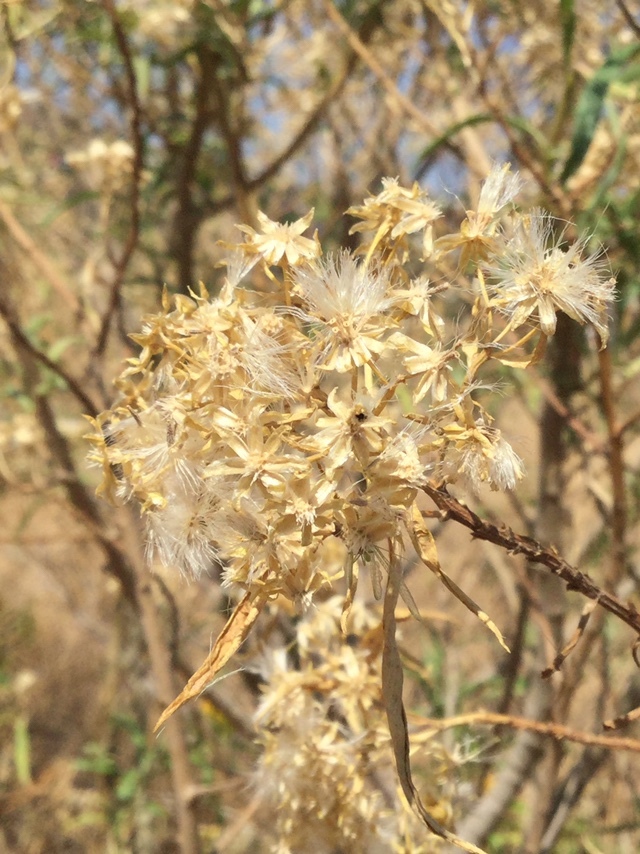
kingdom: Plantae
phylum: Tracheophyta
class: Magnoliopsida
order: Asterales
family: Asteraceae
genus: Barkleyanthus
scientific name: Barkleyanthus salicifolius
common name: Willow ragwort
